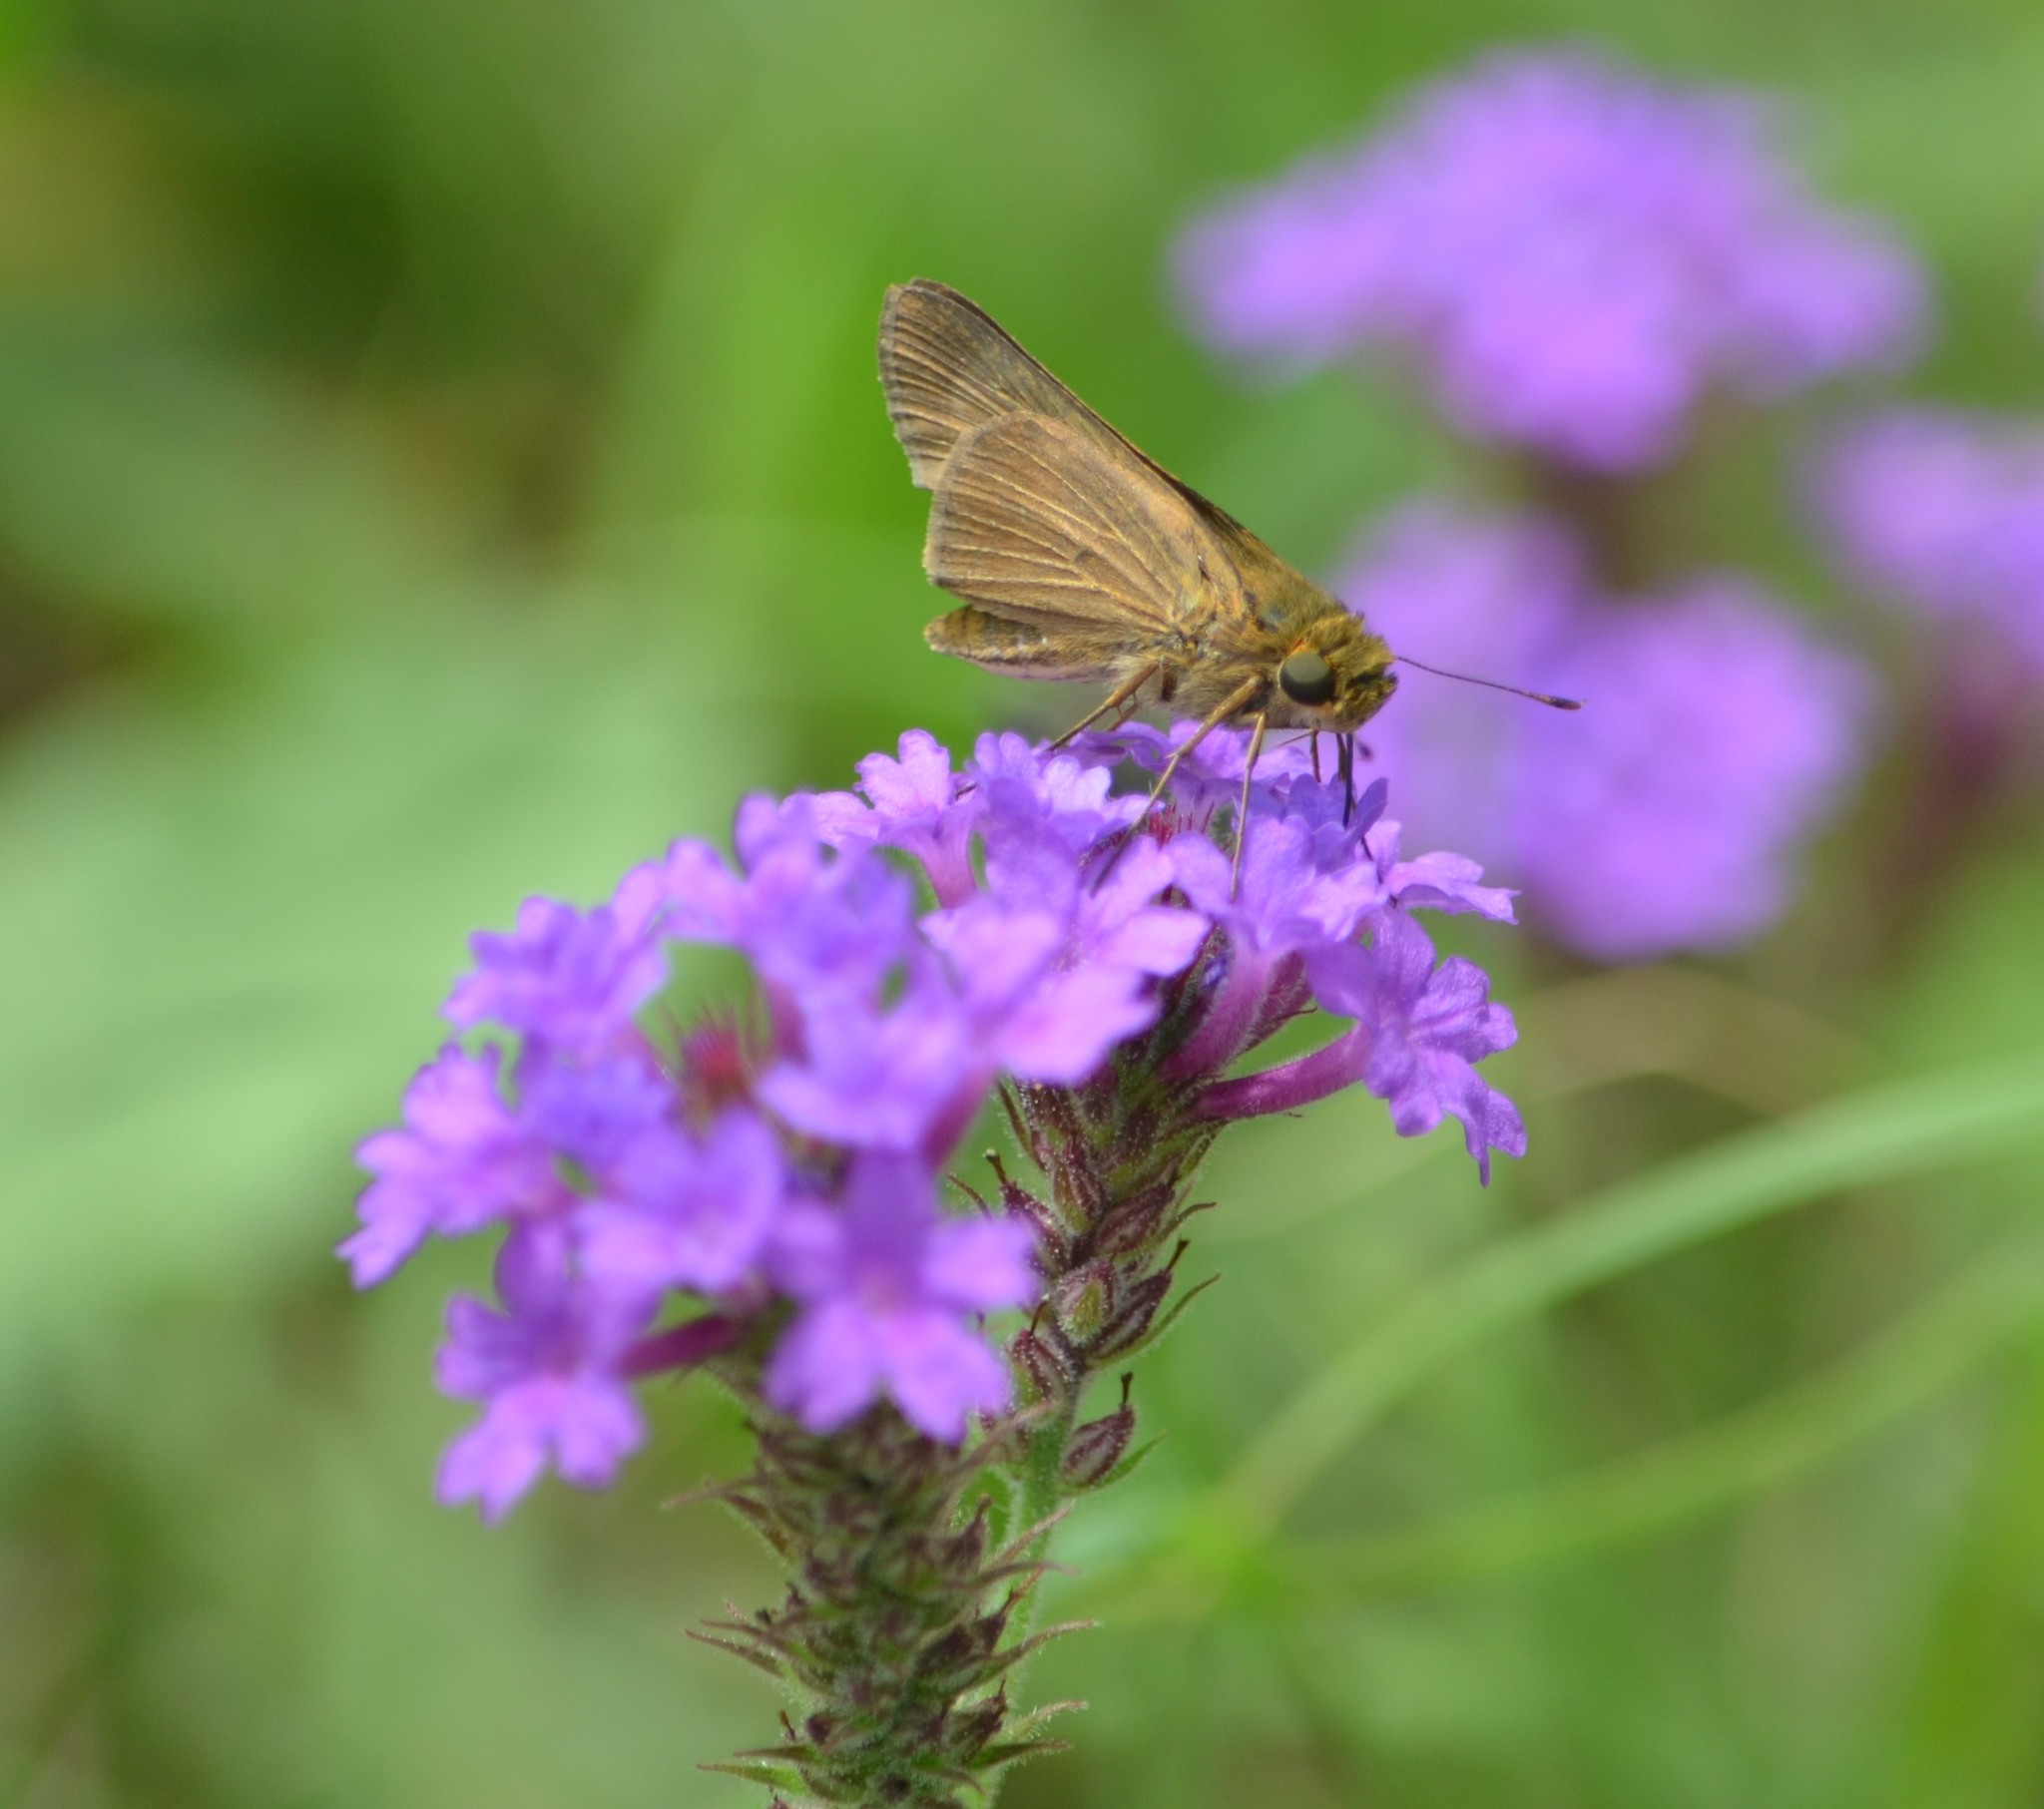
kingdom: Animalia
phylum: Arthropoda
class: Insecta
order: Lepidoptera
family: Hesperiidae
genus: Panoquina
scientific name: Panoquina ocola
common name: Ocola skipper
